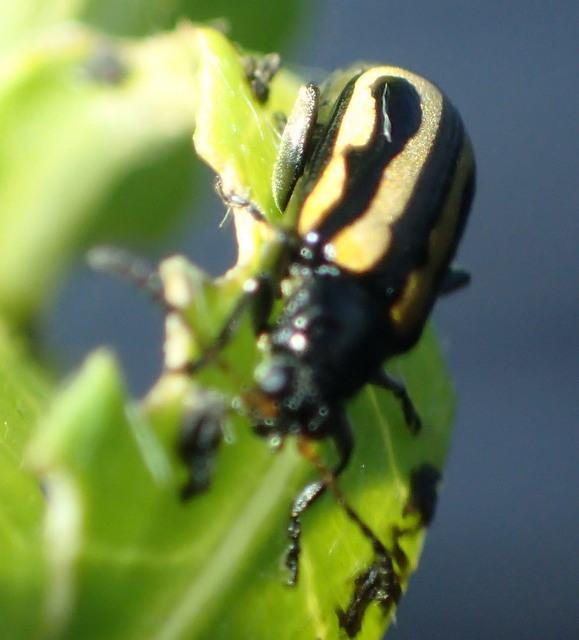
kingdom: Animalia
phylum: Arthropoda
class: Insecta
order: Coleoptera
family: Chrysomelidae
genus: Agasicles
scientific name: Agasicles hygrophila
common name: Alligatorweed flea beetle
